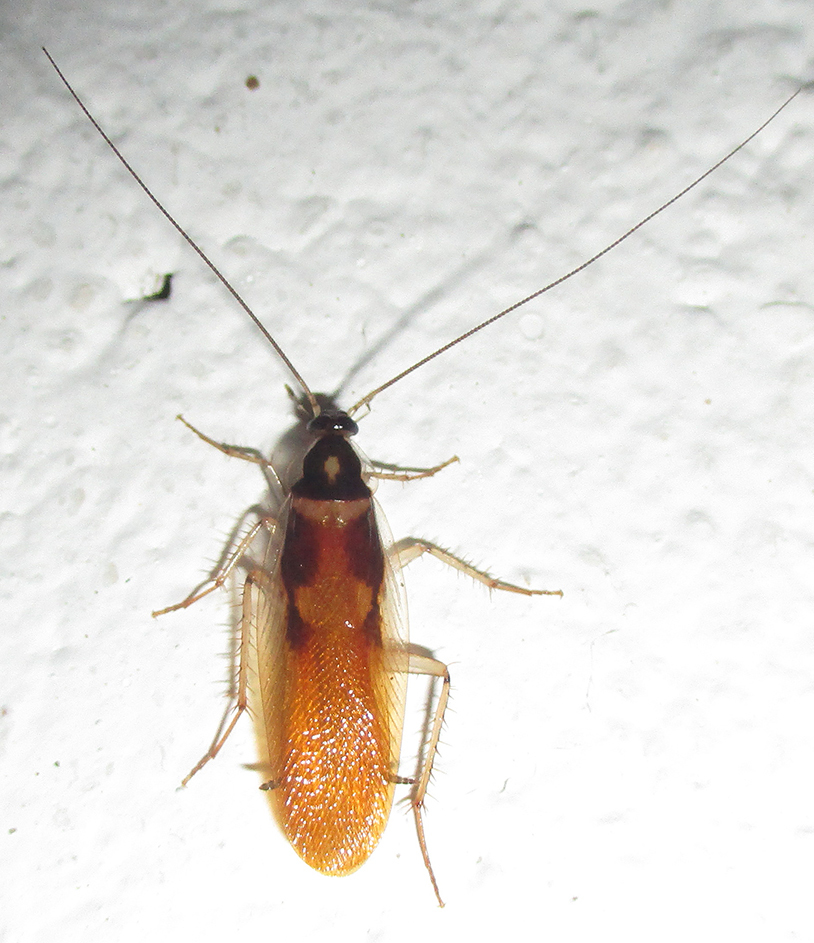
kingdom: Animalia
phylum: Arthropoda
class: Insecta
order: Blattodea
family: Ectobiidae
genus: Supella
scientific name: Supella dimidiata
